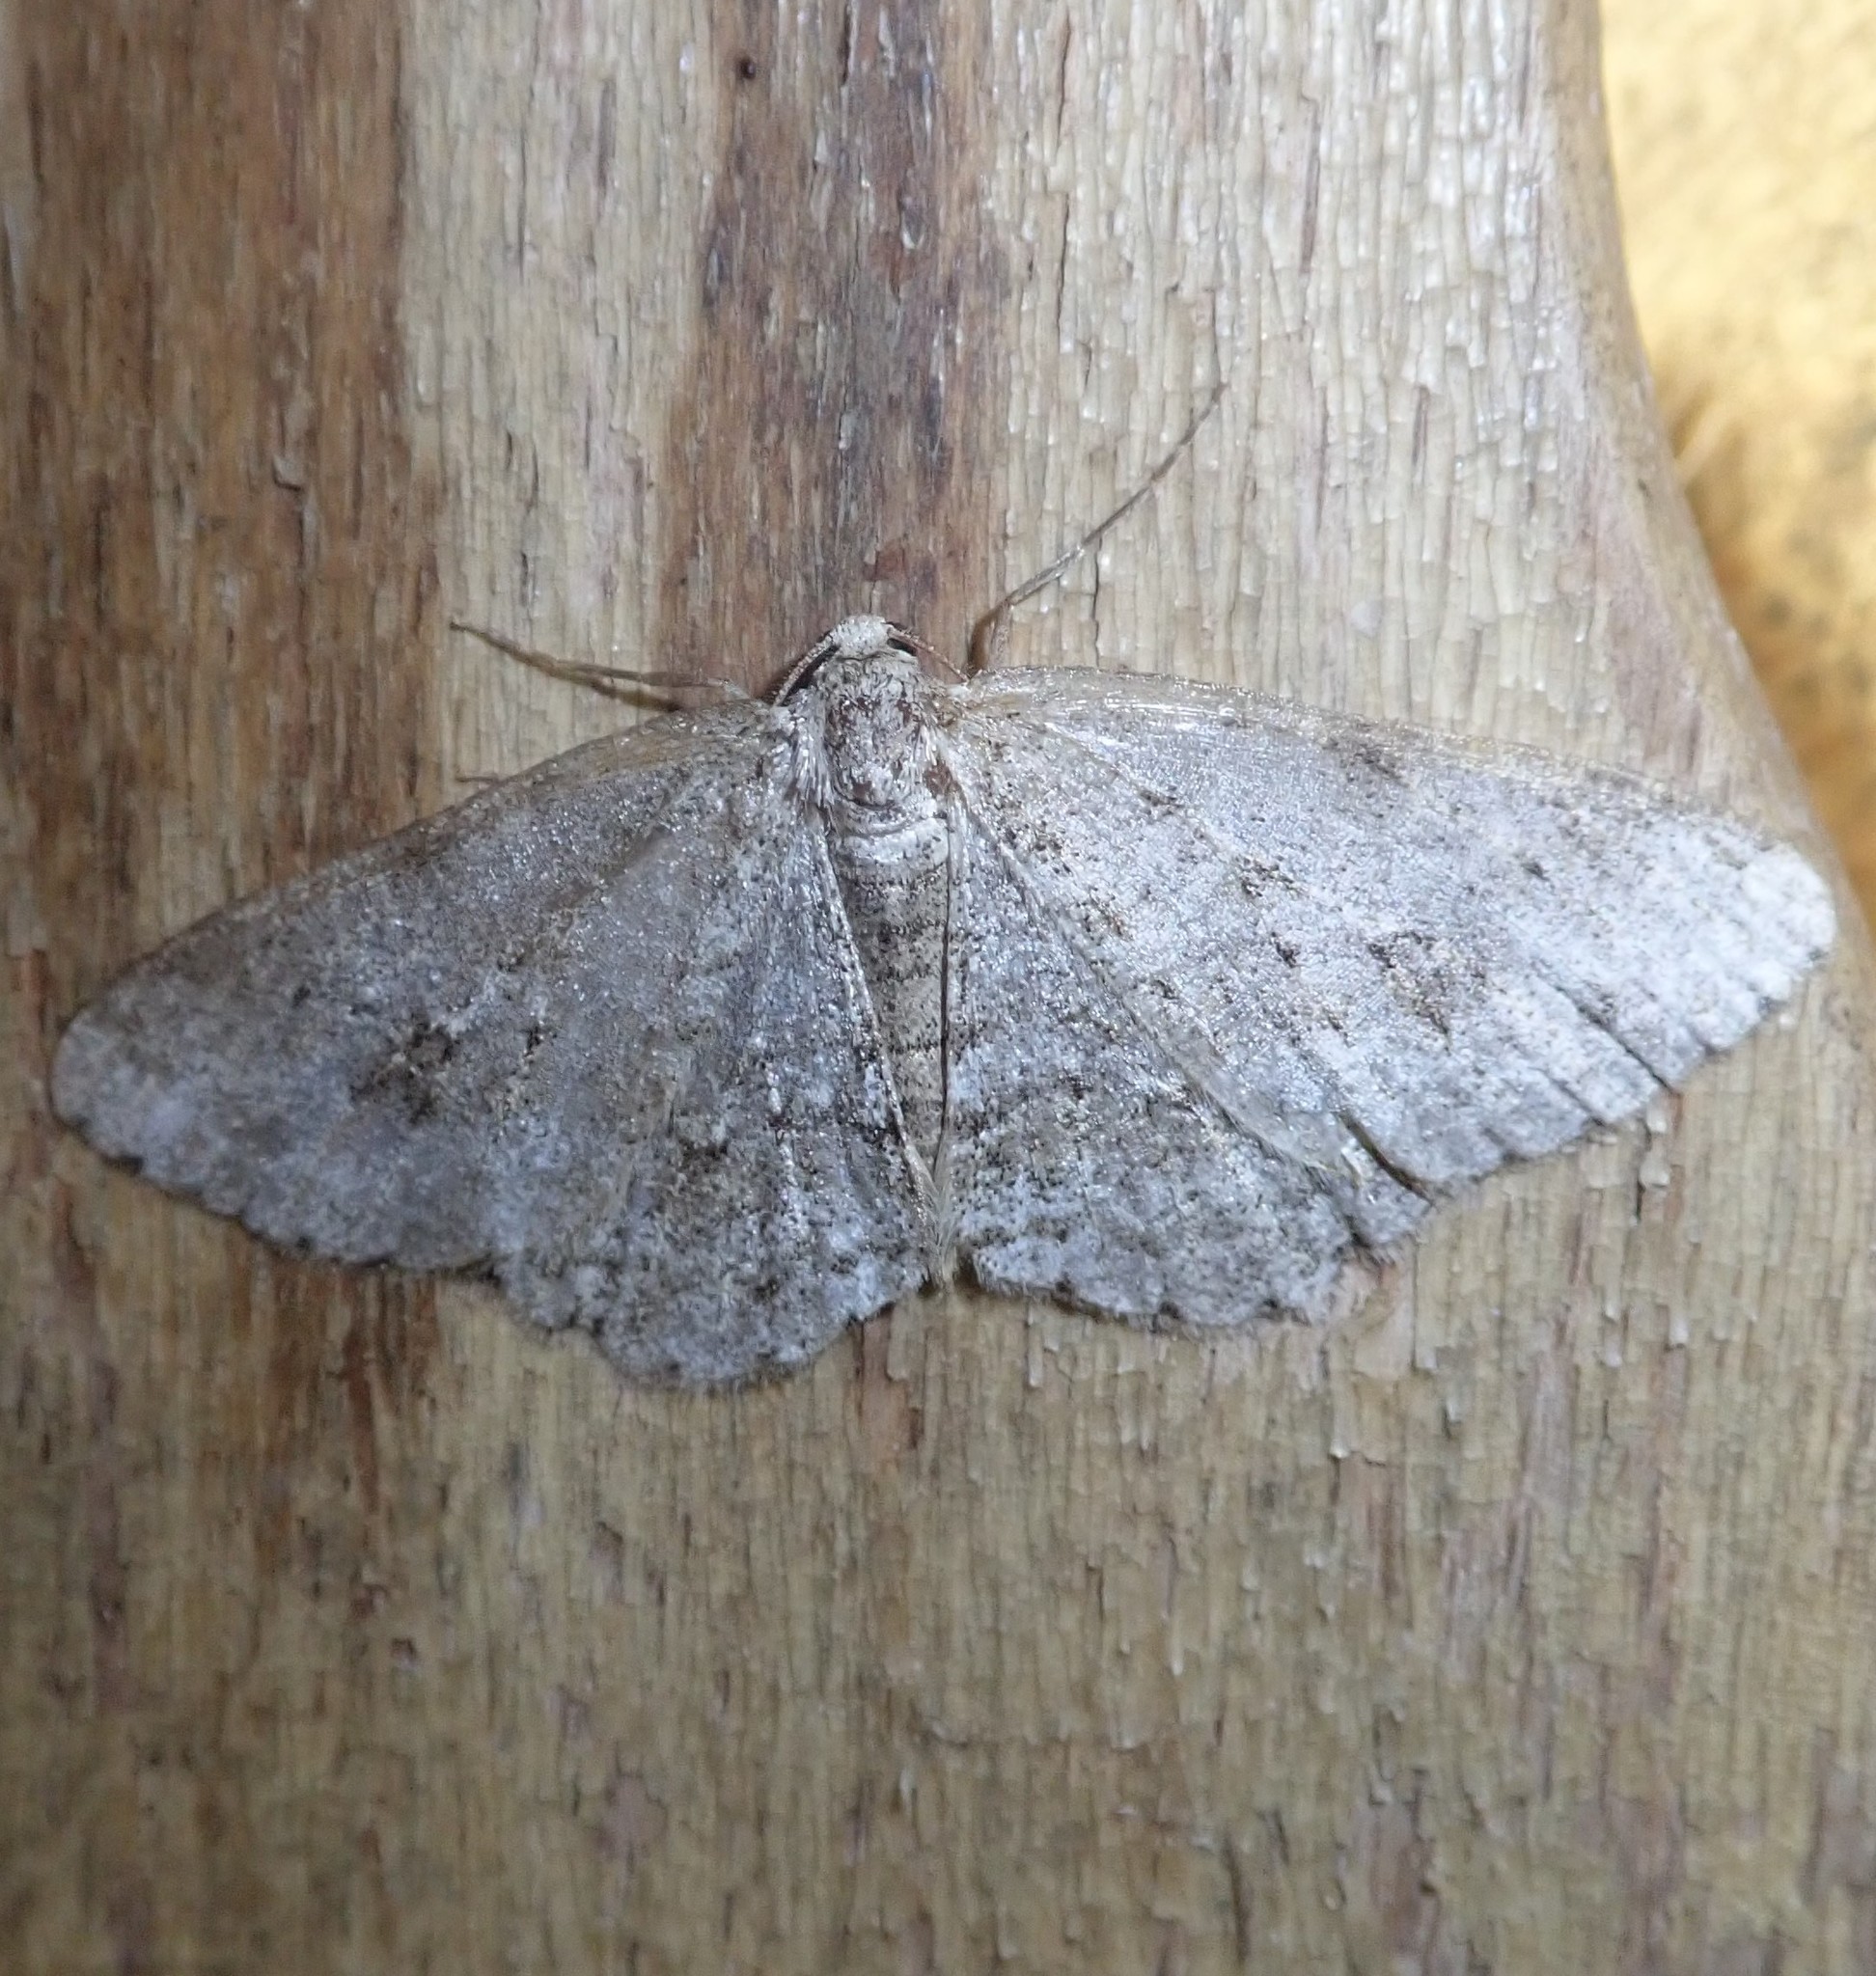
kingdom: Animalia
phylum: Arthropoda
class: Insecta
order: Lepidoptera
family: Geometridae
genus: Ectropis
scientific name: Ectropis crepuscularia
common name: Engrailed
